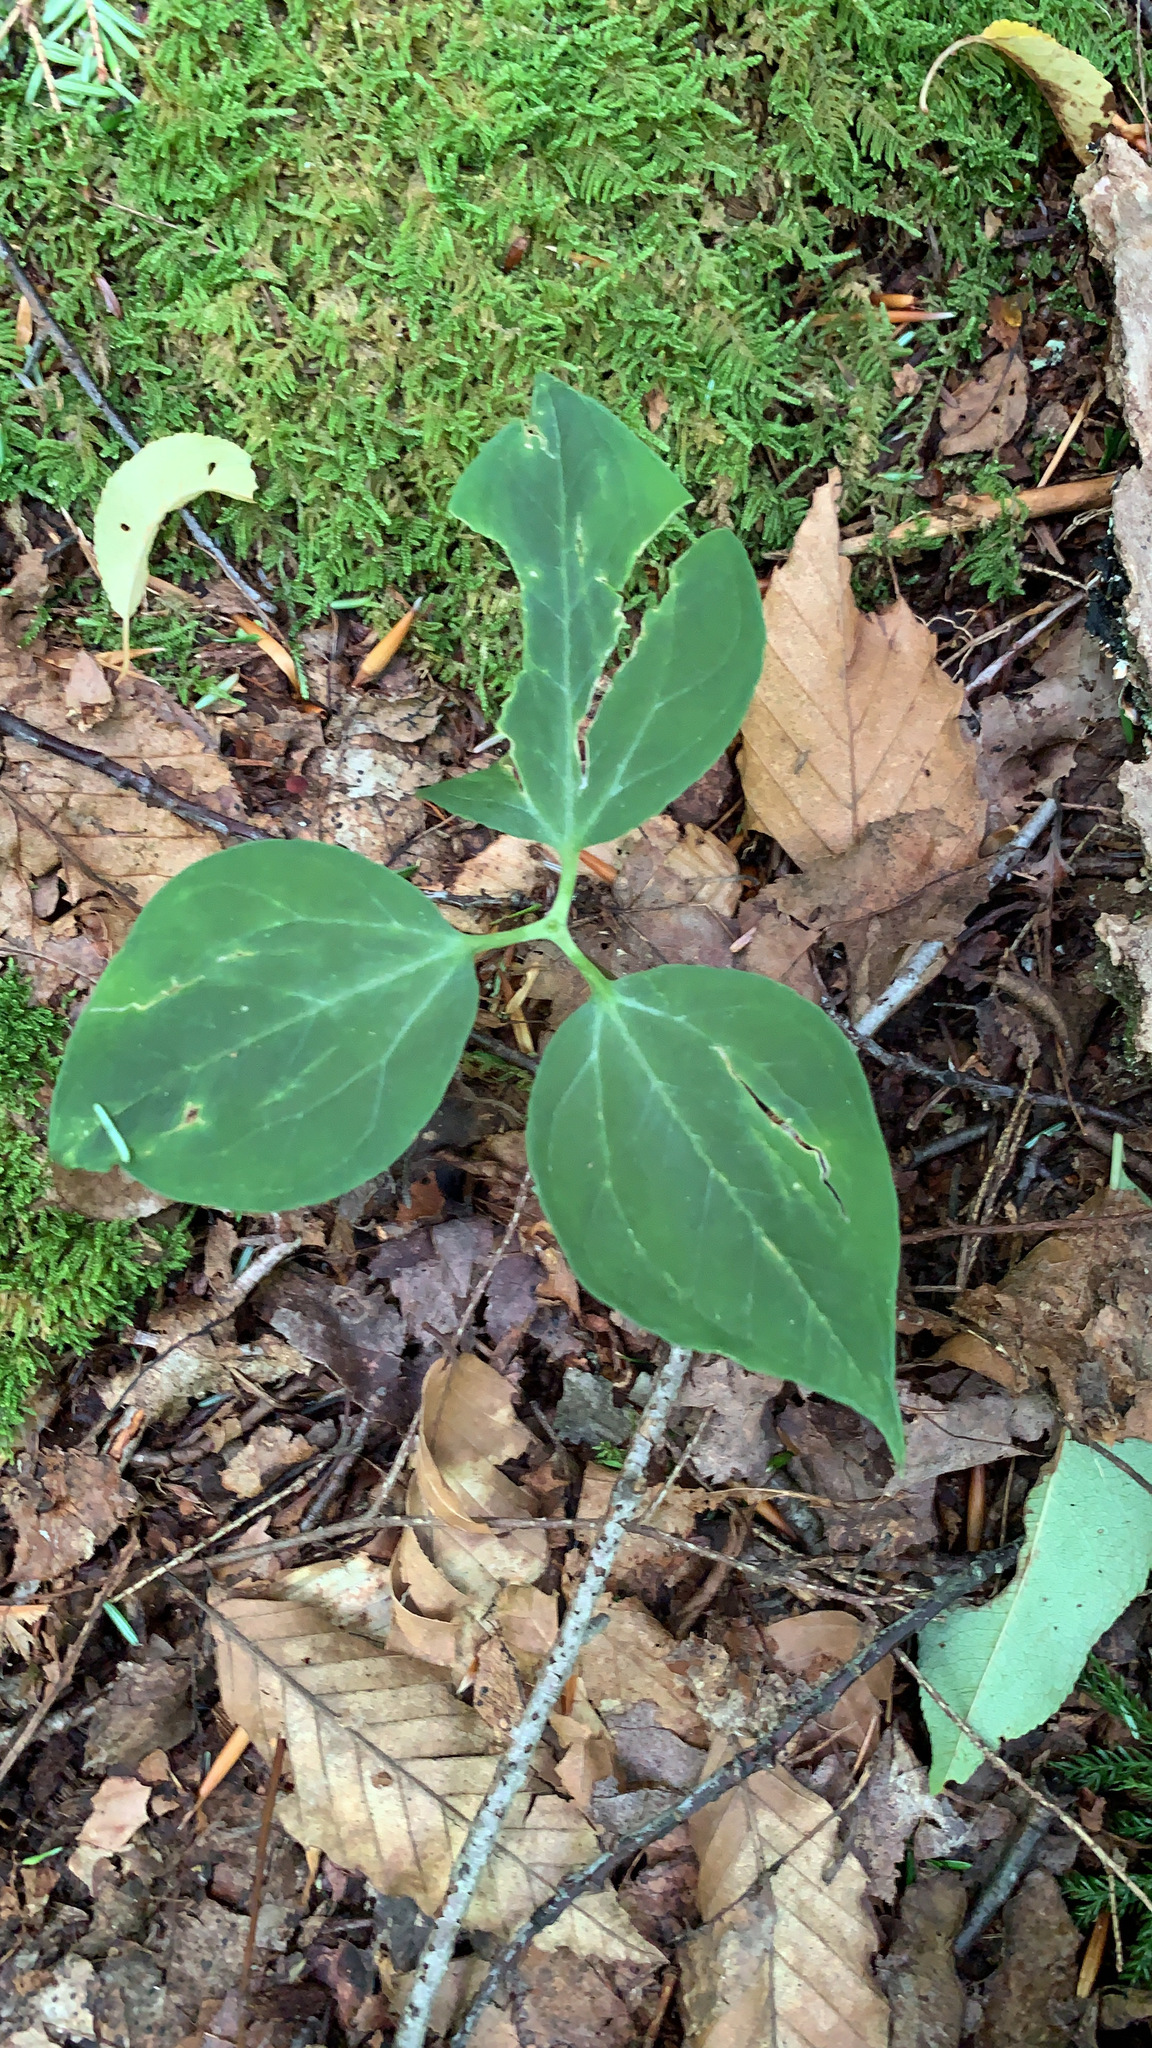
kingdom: Plantae
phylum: Tracheophyta
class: Liliopsida
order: Liliales
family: Melanthiaceae
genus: Trillium
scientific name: Trillium undulatum
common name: Paint trillium
